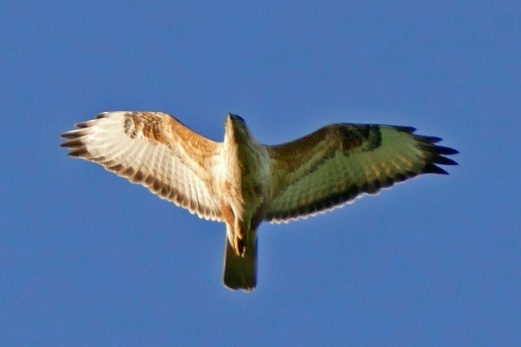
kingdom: Animalia
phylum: Chordata
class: Aves
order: Accipitriformes
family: Accipitridae
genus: Buteo
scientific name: Buteo buteo
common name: Common buzzard
